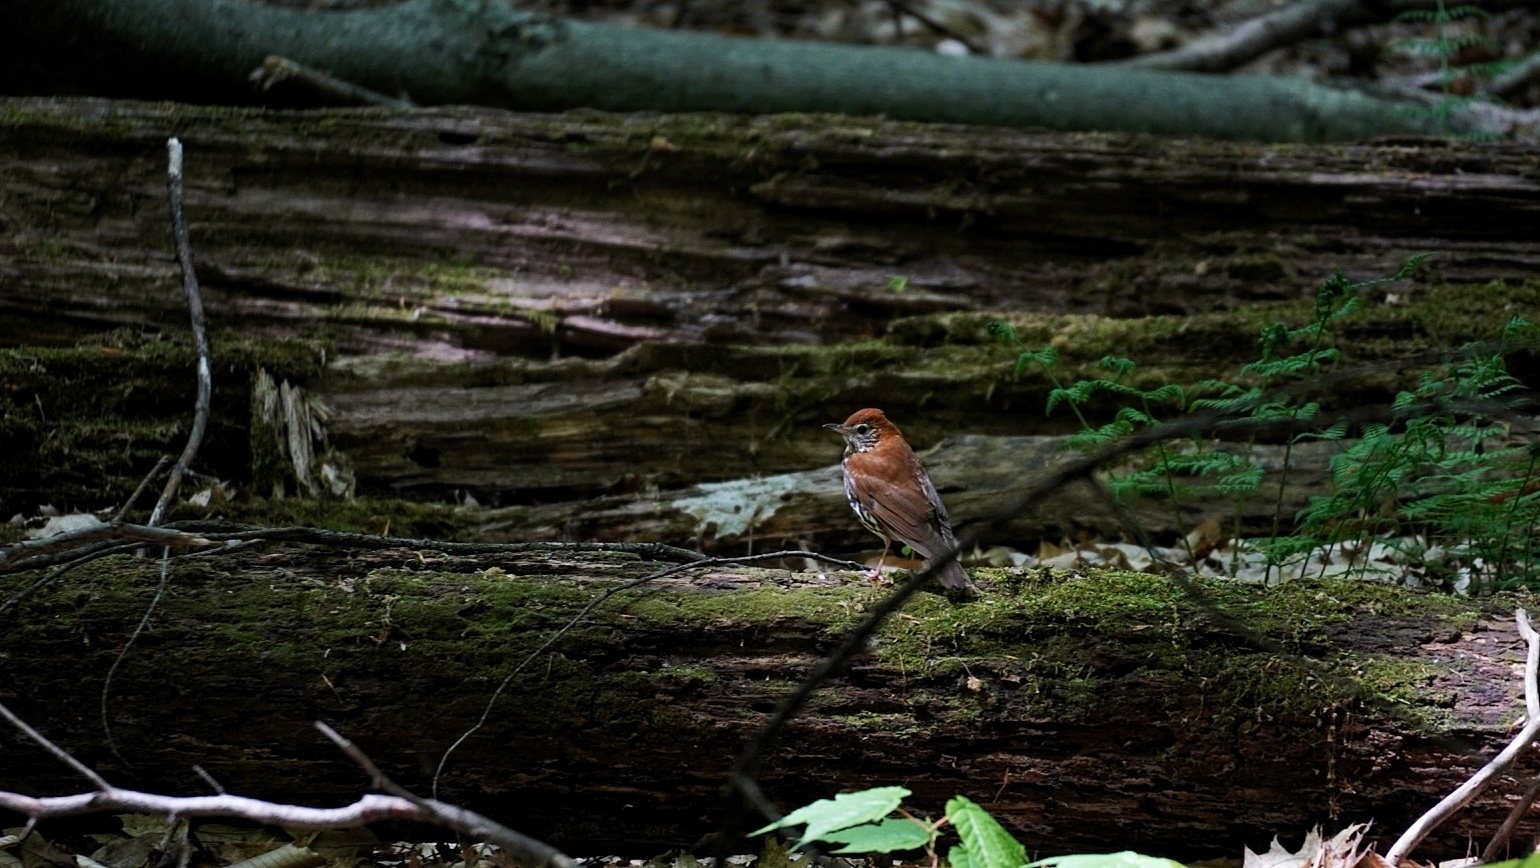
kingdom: Animalia
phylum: Chordata
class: Aves
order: Passeriformes
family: Turdidae
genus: Hylocichla
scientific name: Hylocichla mustelina
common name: Wood thrush
